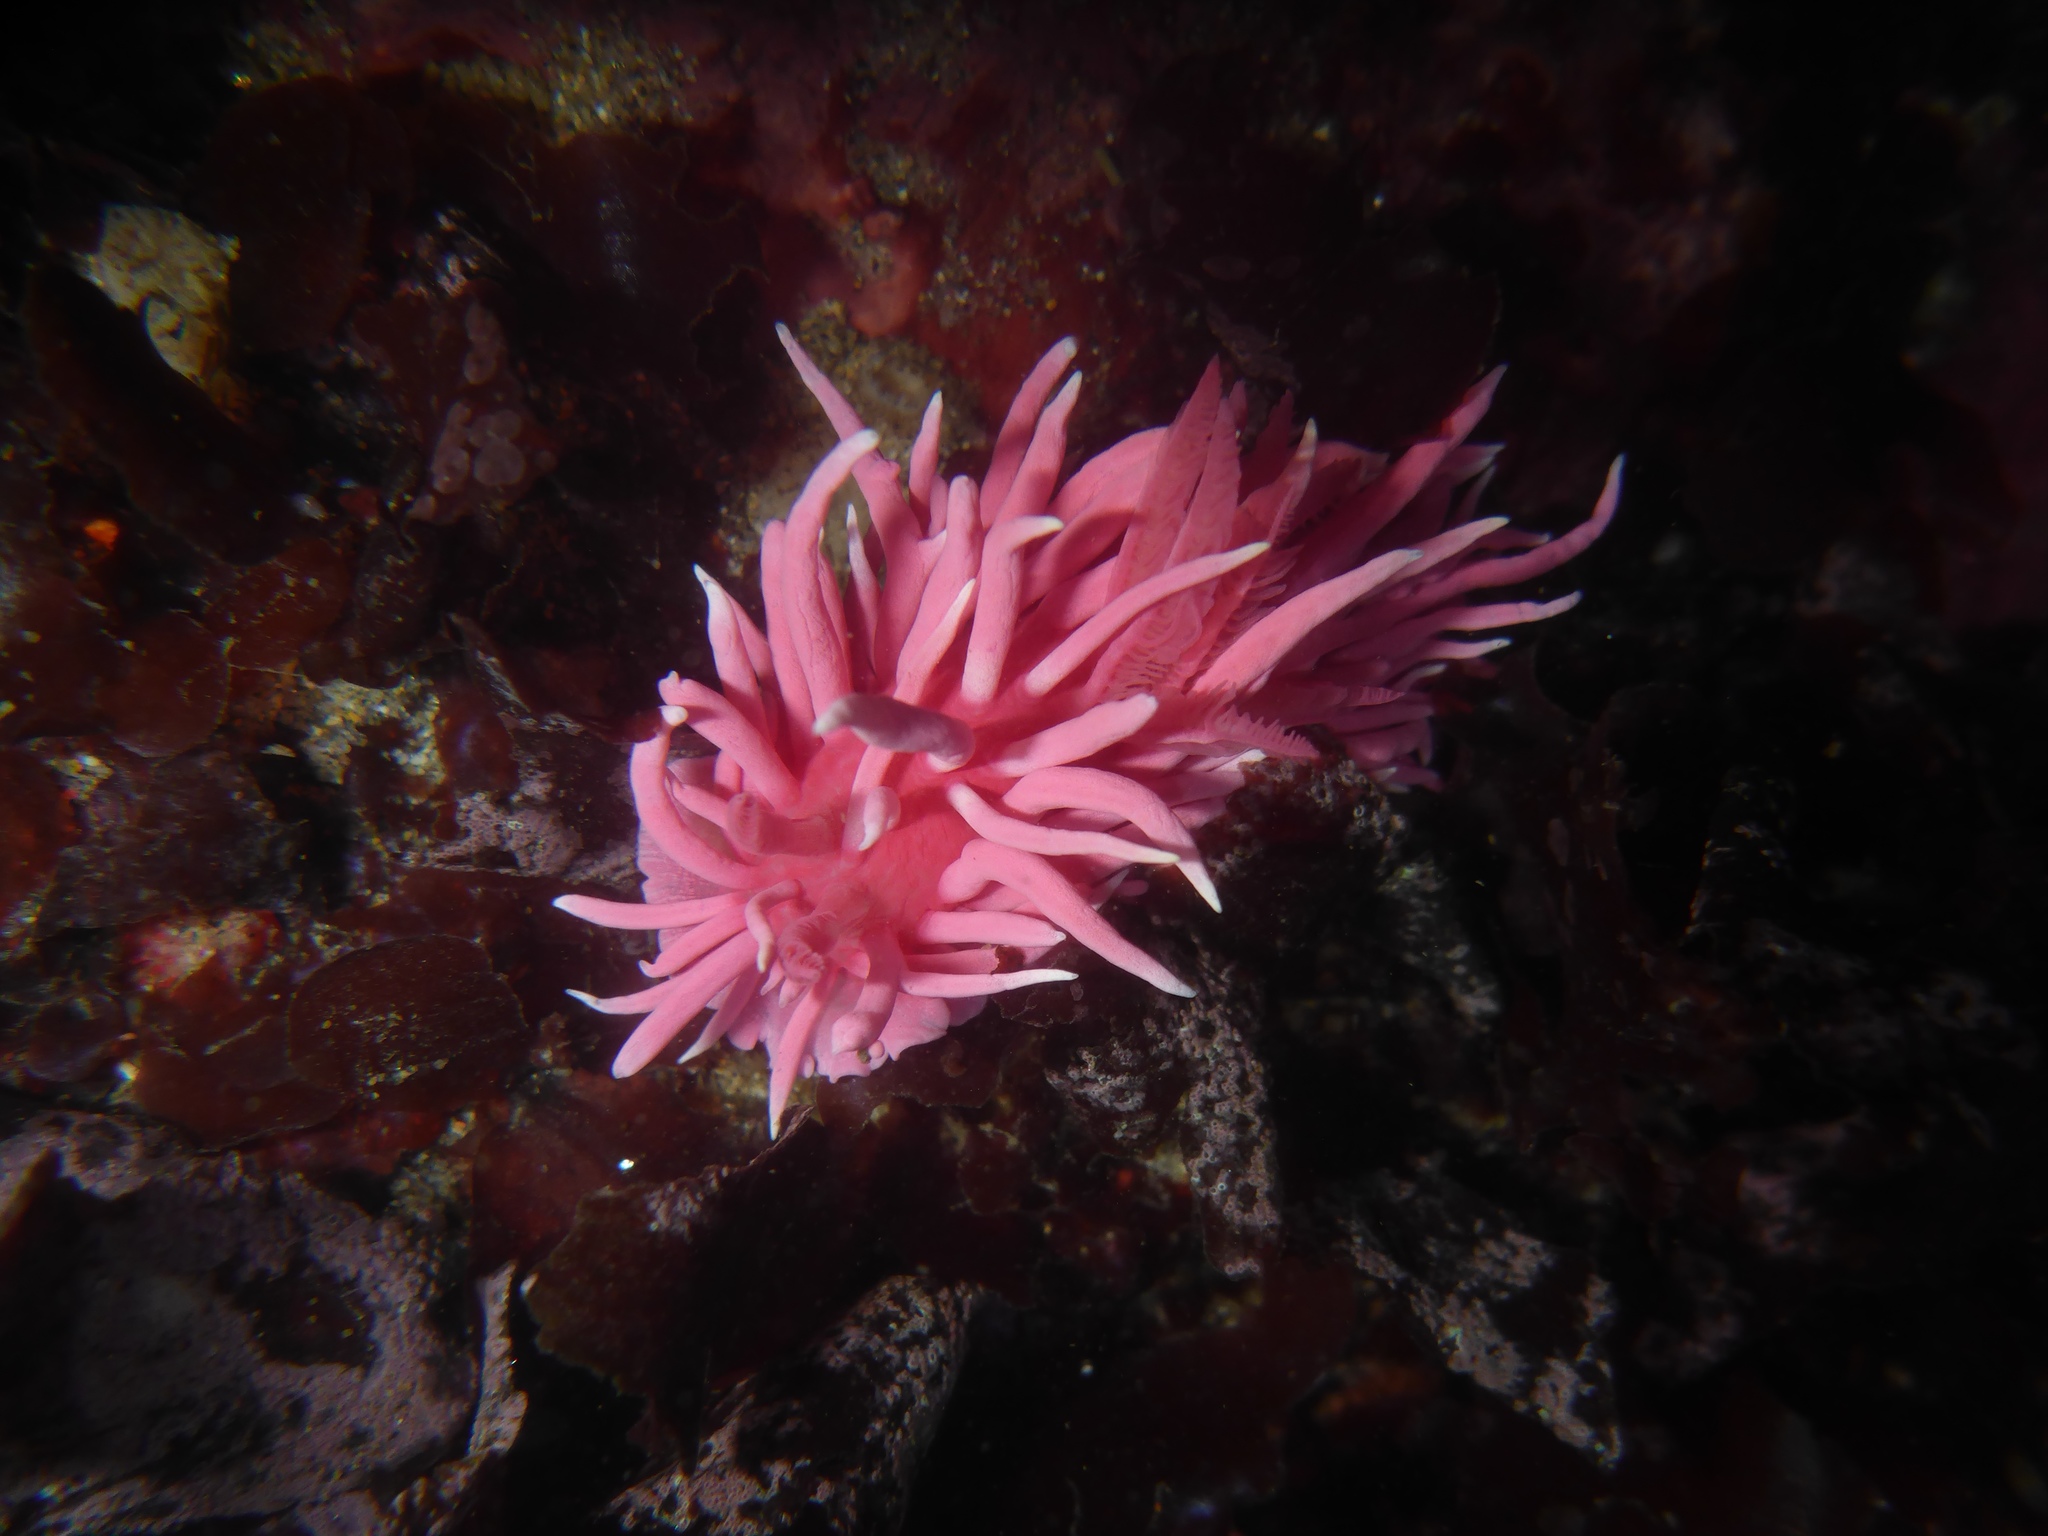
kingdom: Animalia
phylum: Mollusca
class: Gastropoda
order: Nudibranchia
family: Goniodorididae
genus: Okenia
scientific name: Okenia
